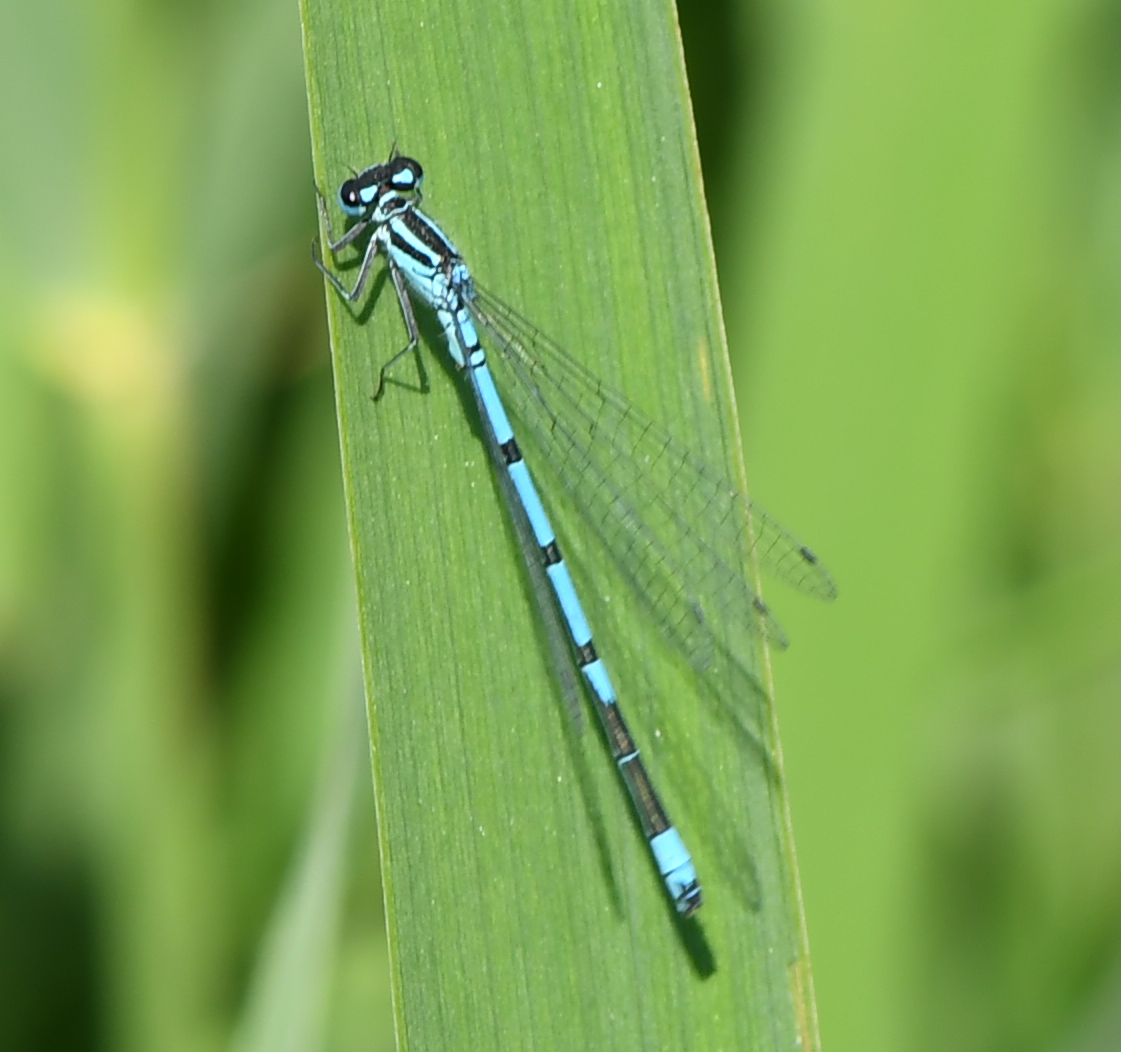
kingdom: Animalia
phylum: Arthropoda
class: Insecta
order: Odonata
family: Coenagrionidae
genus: Coenagrion
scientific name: Coenagrion puella
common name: Azure damselfly
